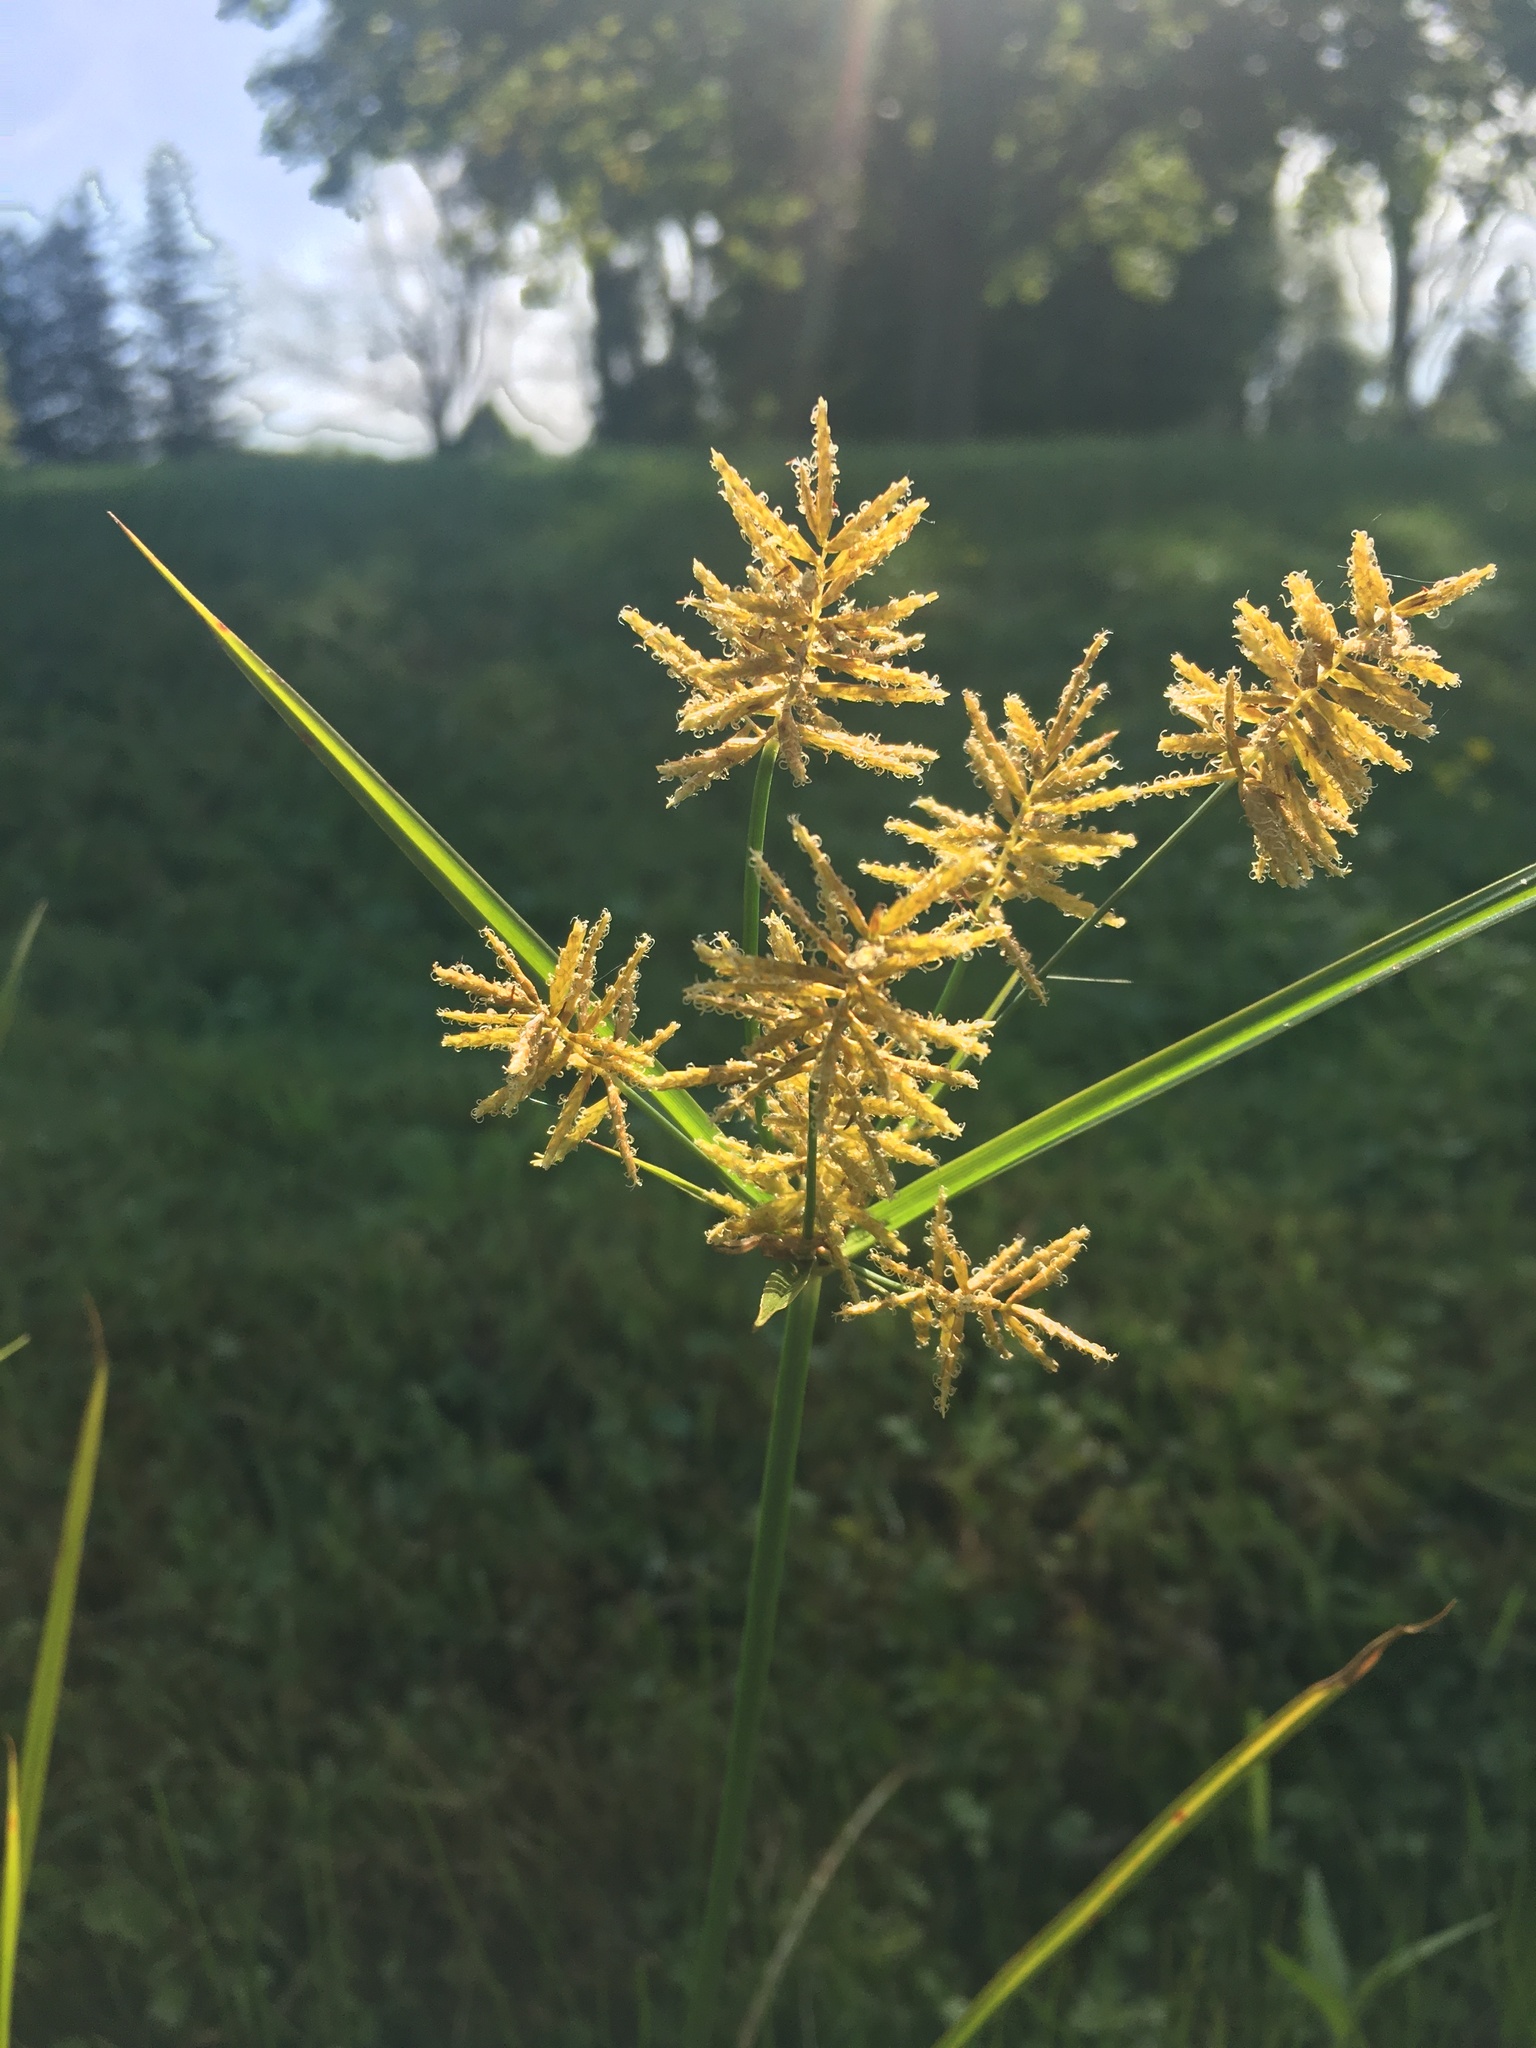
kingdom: Plantae
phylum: Tracheophyta
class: Liliopsida
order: Poales
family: Cyperaceae
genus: Cyperus
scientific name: Cyperus esculentus
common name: Yellow nutsedge
